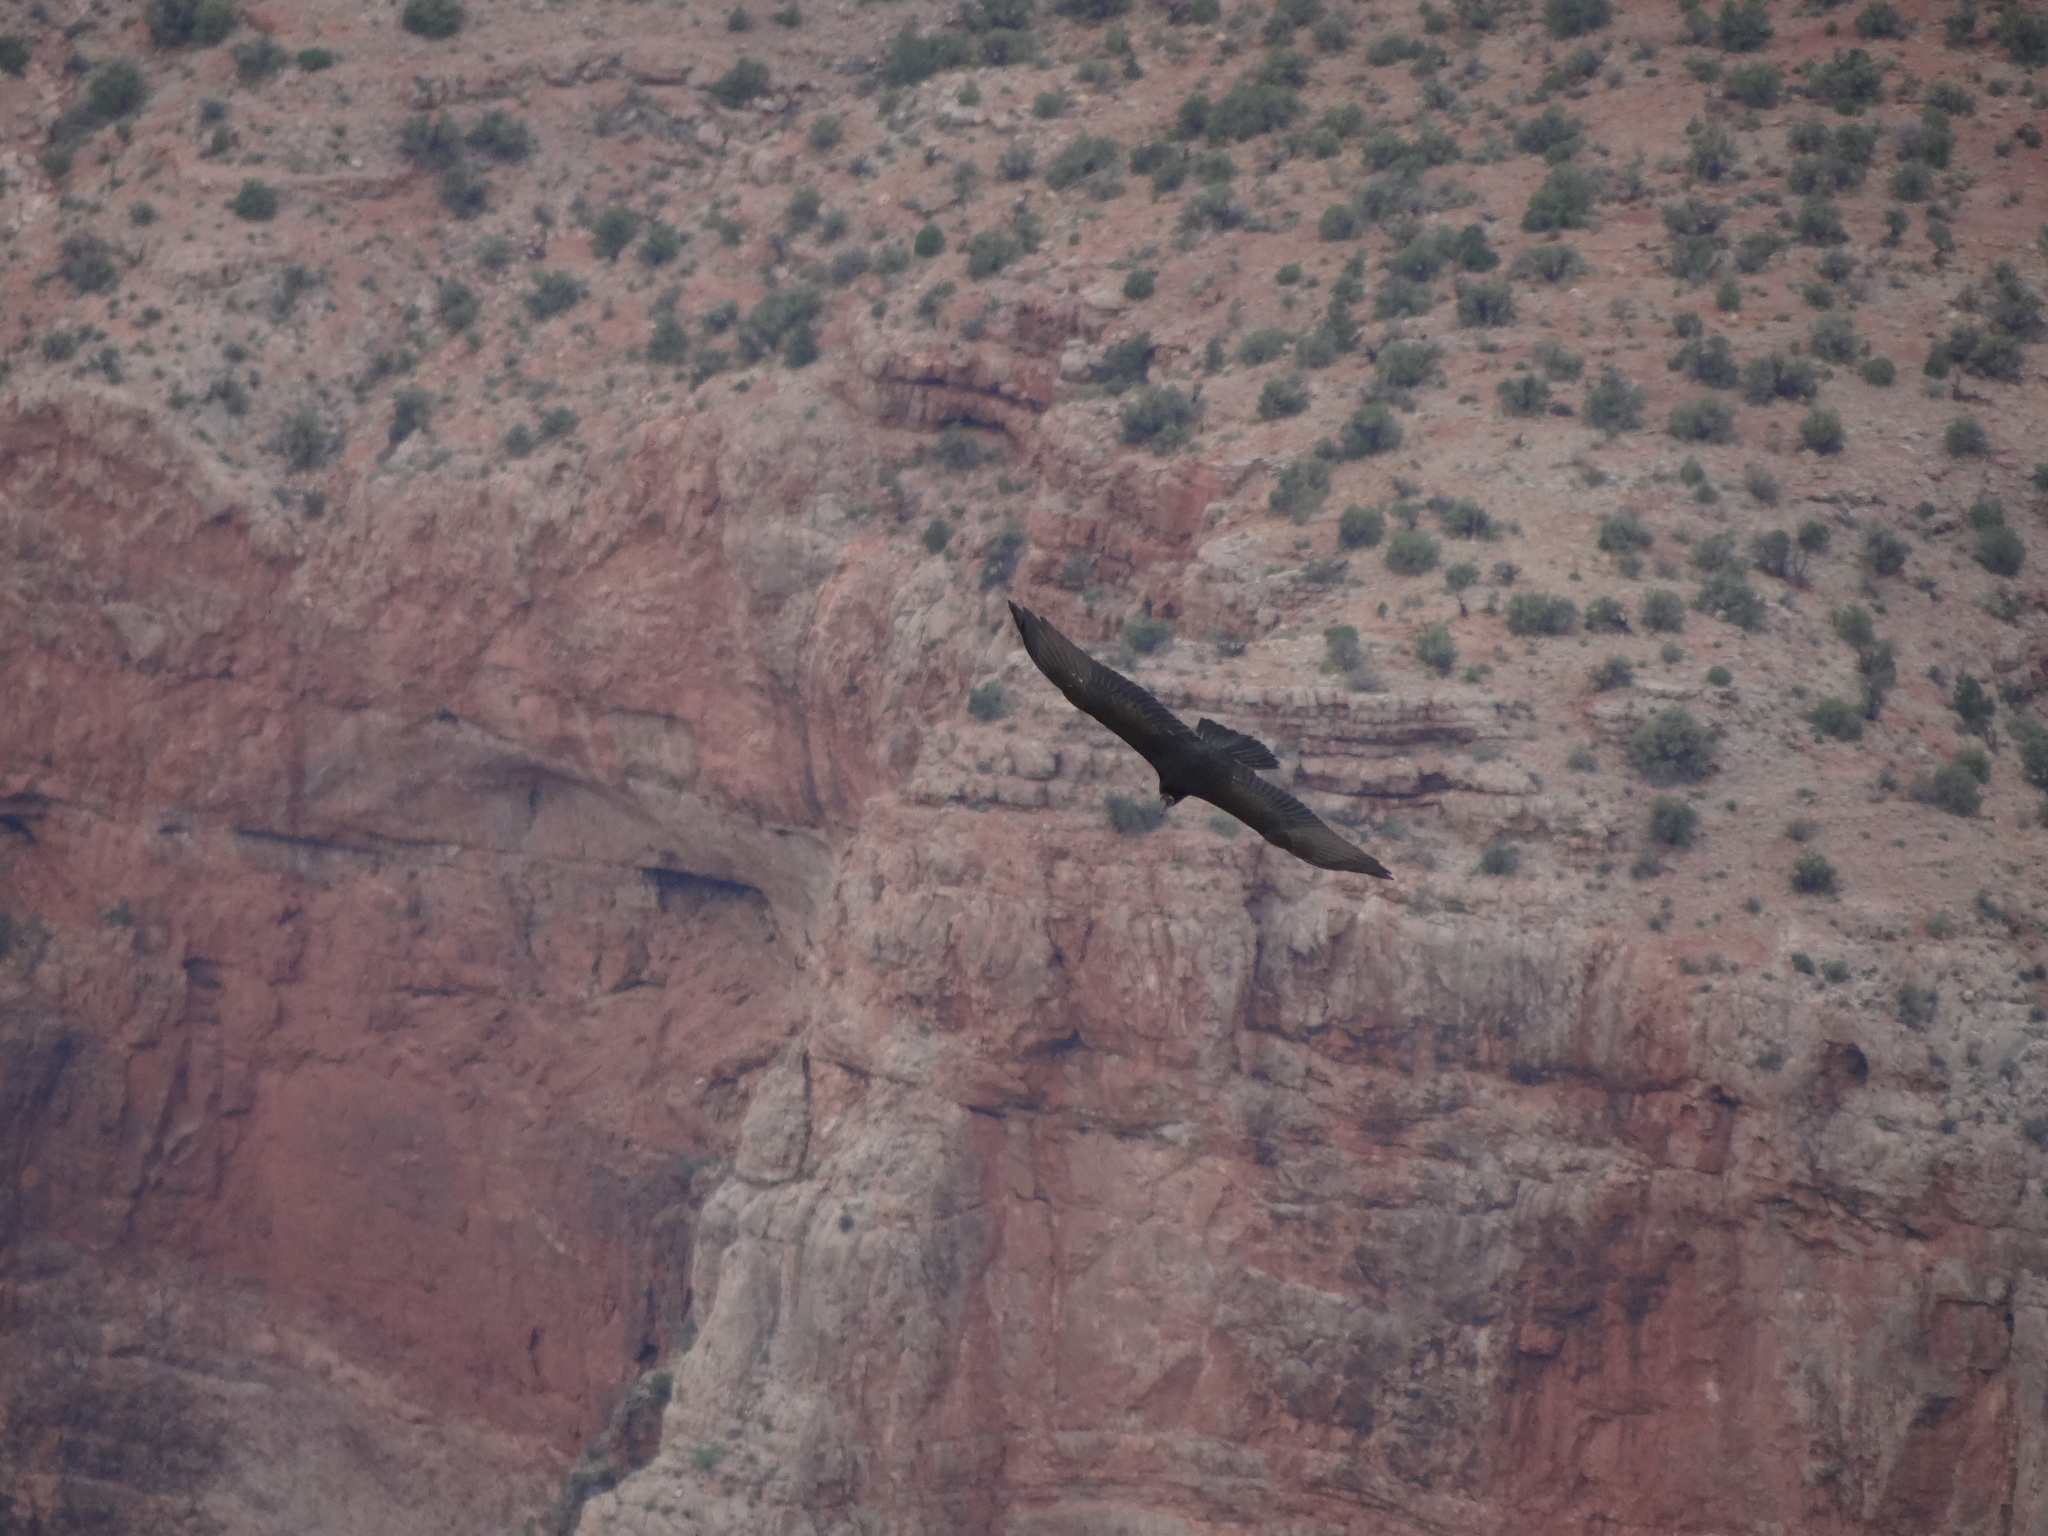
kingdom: Animalia
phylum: Chordata
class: Aves
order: Accipitriformes
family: Cathartidae
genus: Cathartes
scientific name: Cathartes aura
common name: Turkey vulture
